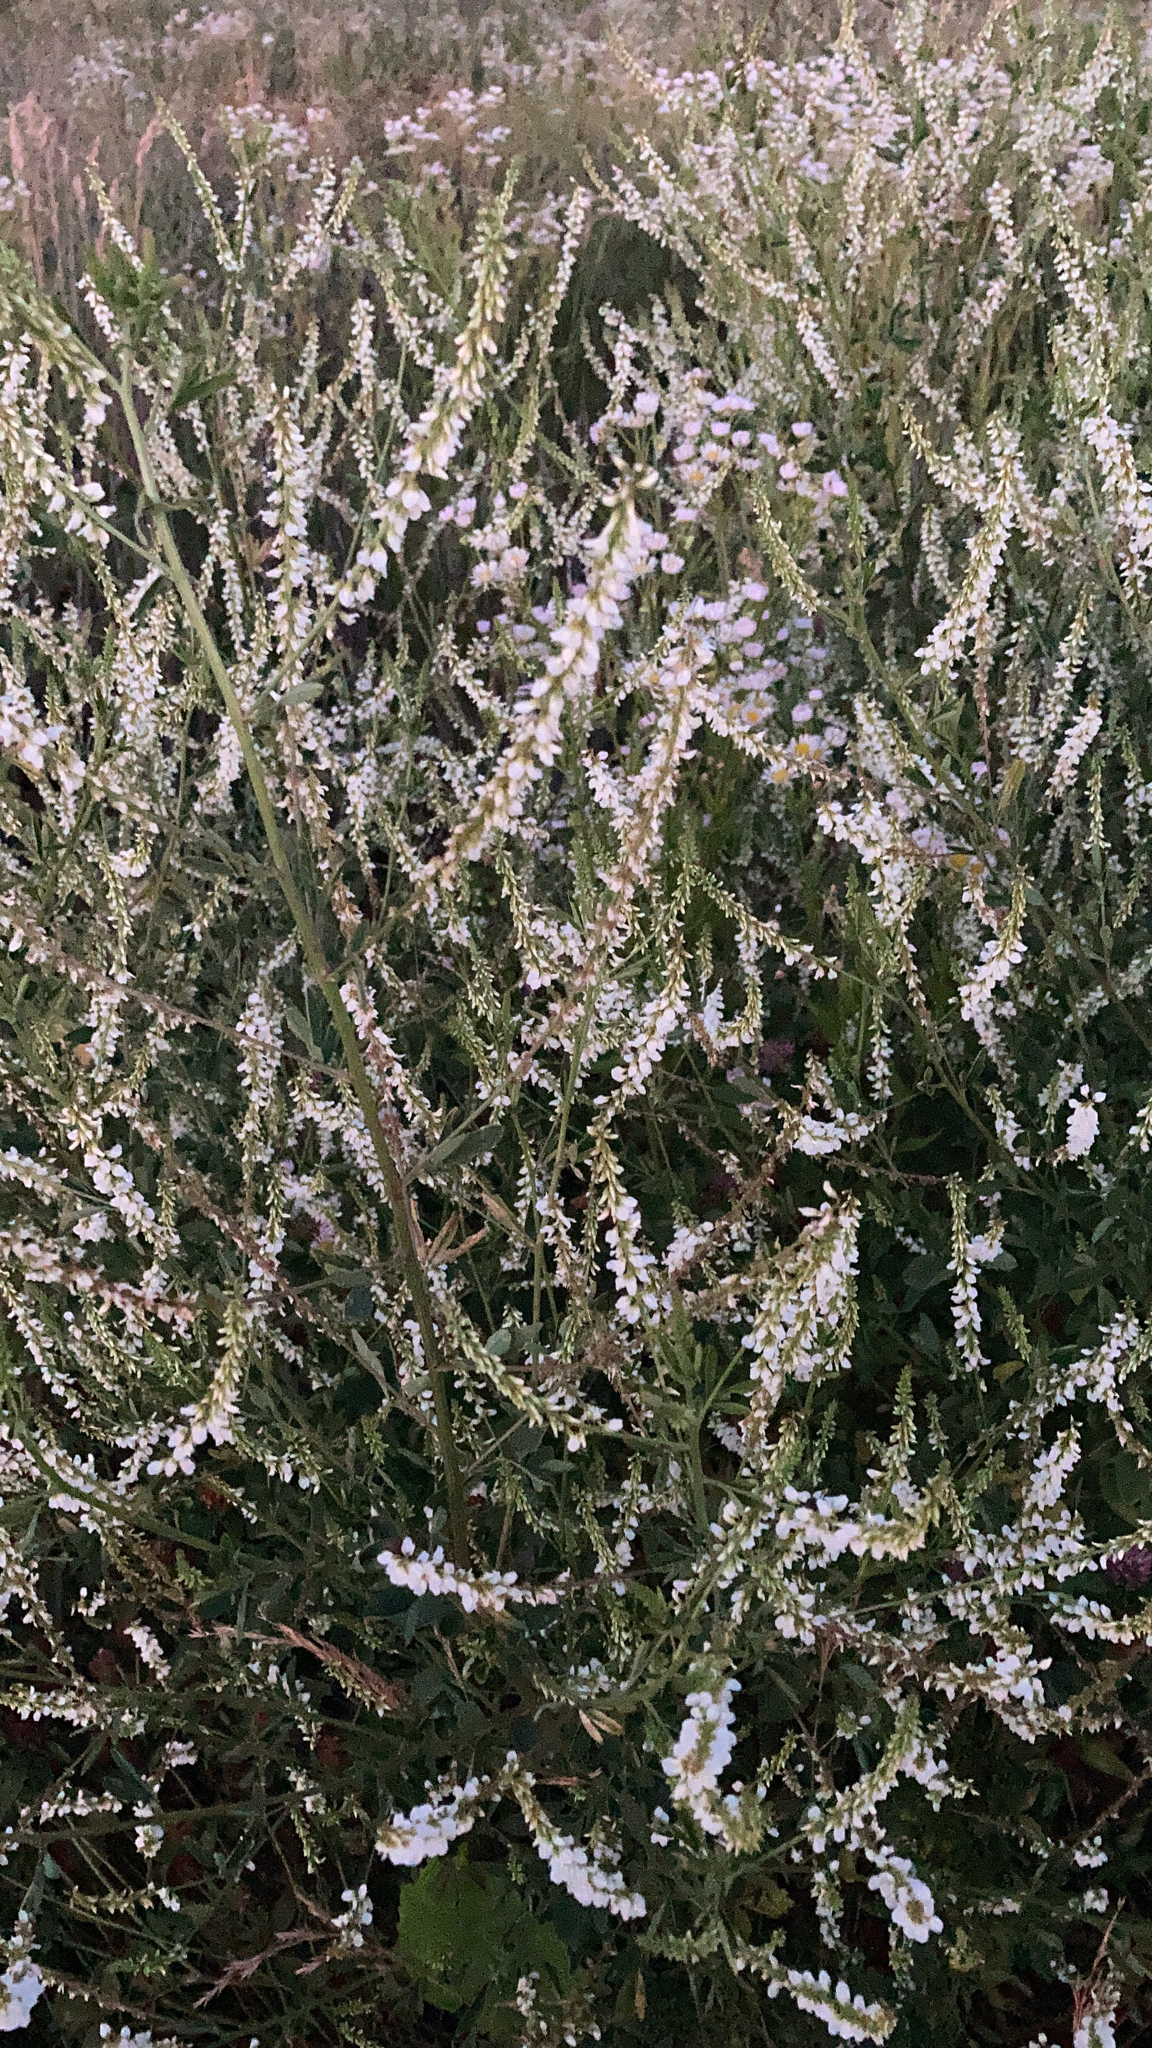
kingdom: Plantae
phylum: Tracheophyta
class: Magnoliopsida
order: Fabales
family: Fabaceae
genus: Melilotus
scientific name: Melilotus albus
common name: White melilot
